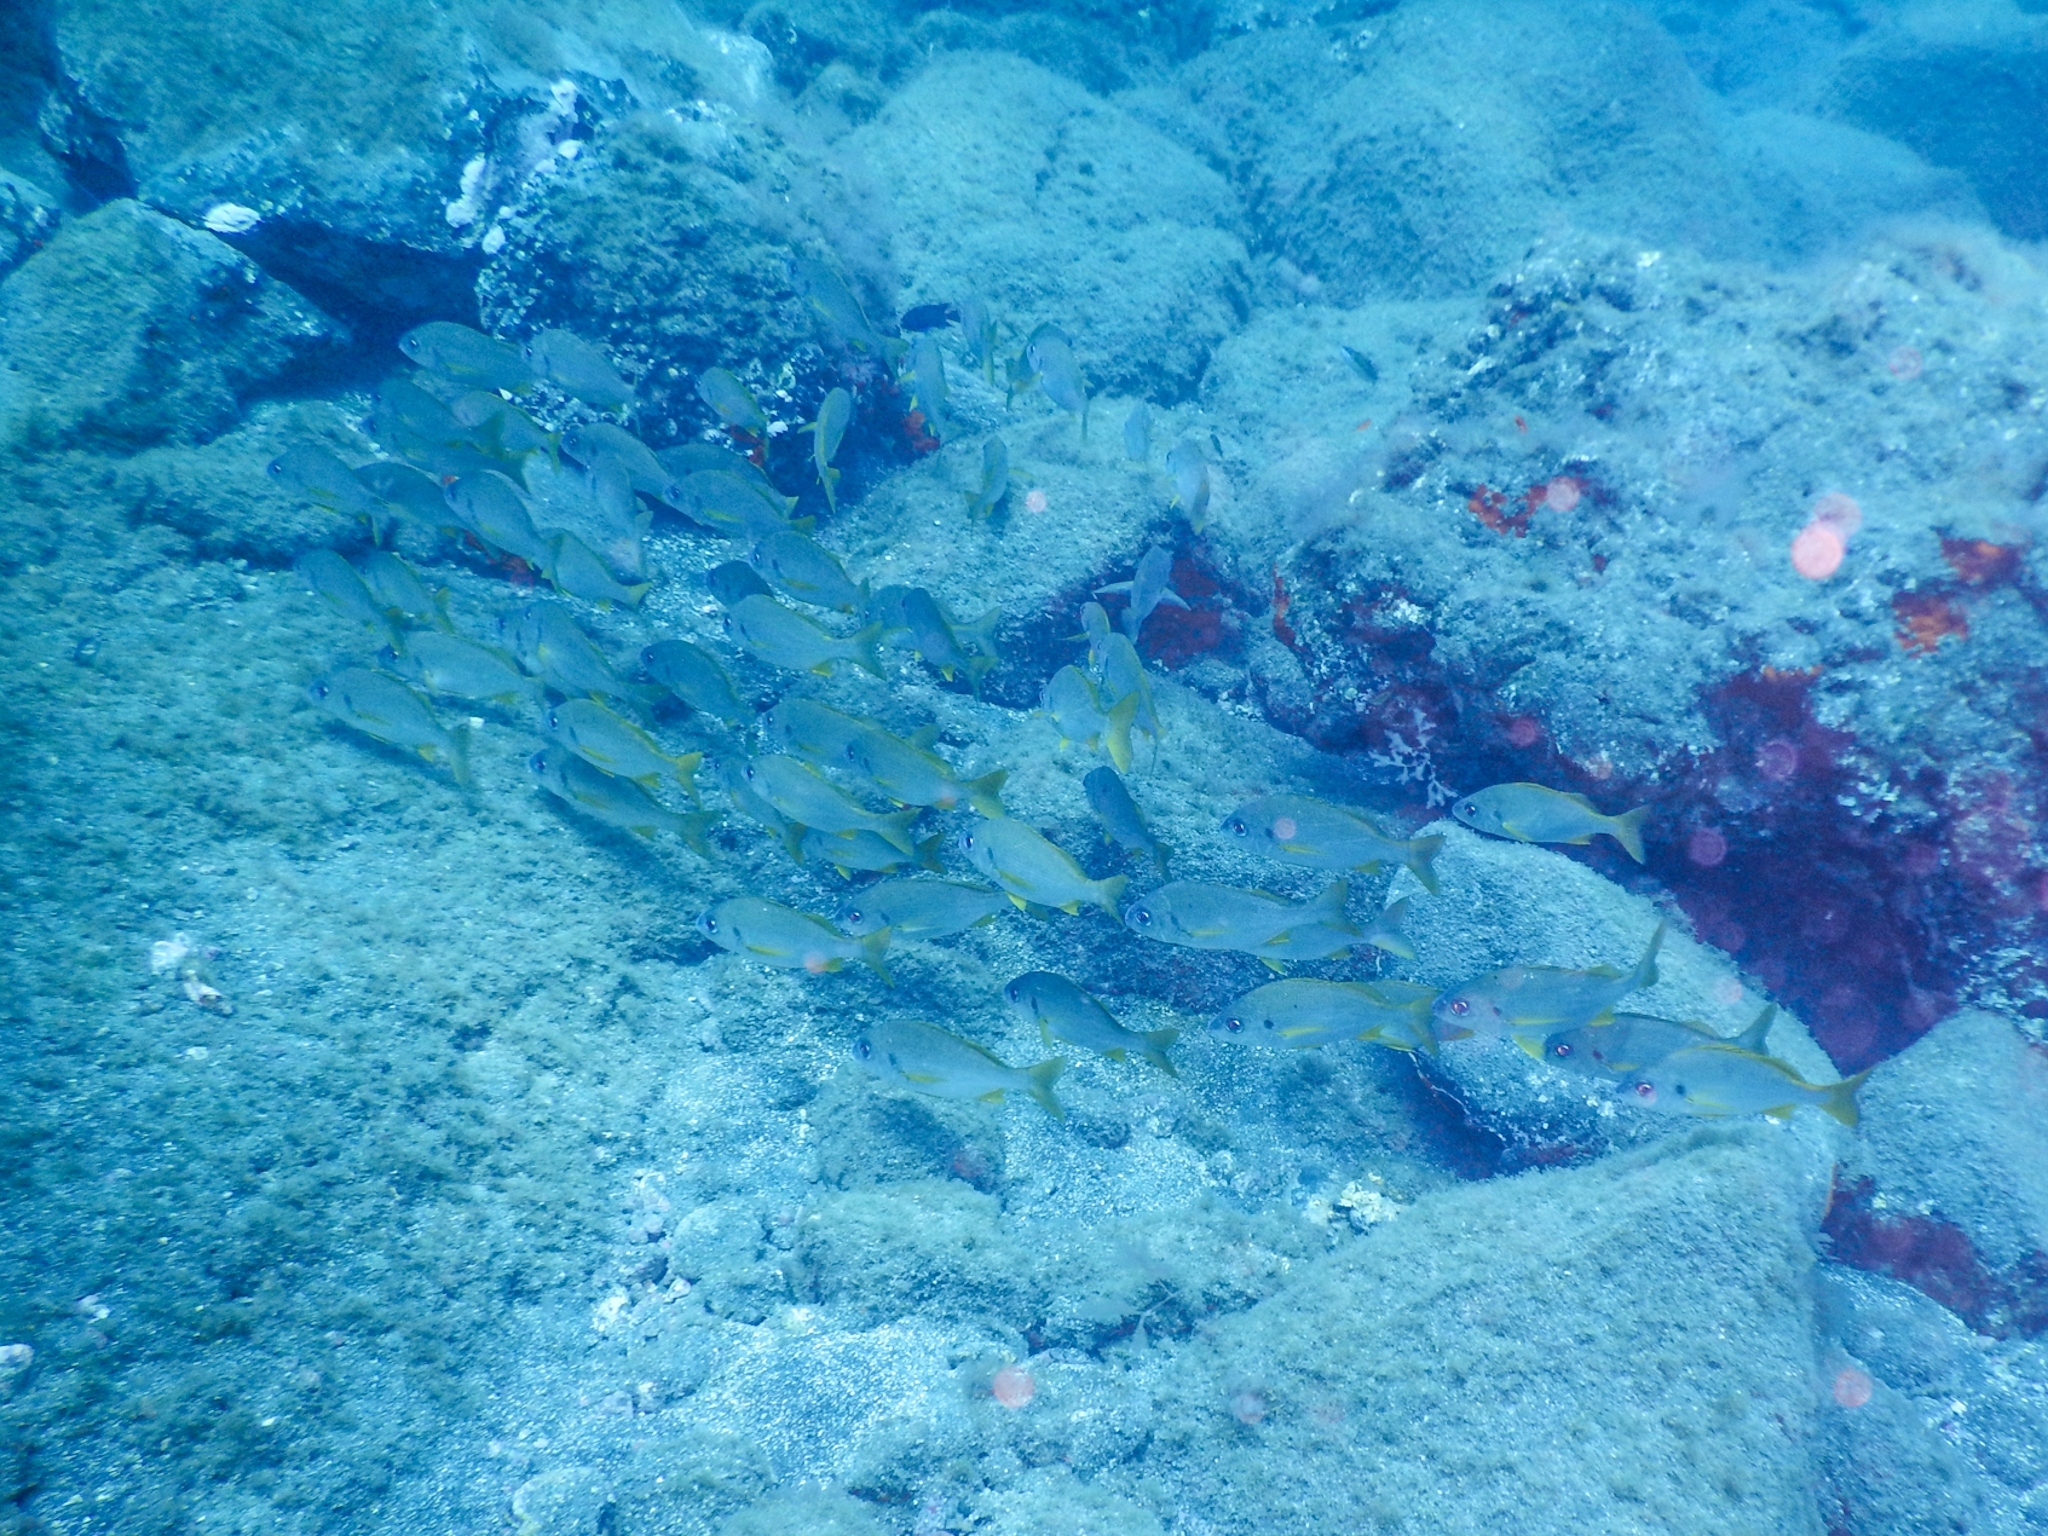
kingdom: Animalia
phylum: Chordata
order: Perciformes
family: Haemulidae
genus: Pomadasys
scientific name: Pomadasys incisus
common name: Bastard grunt
